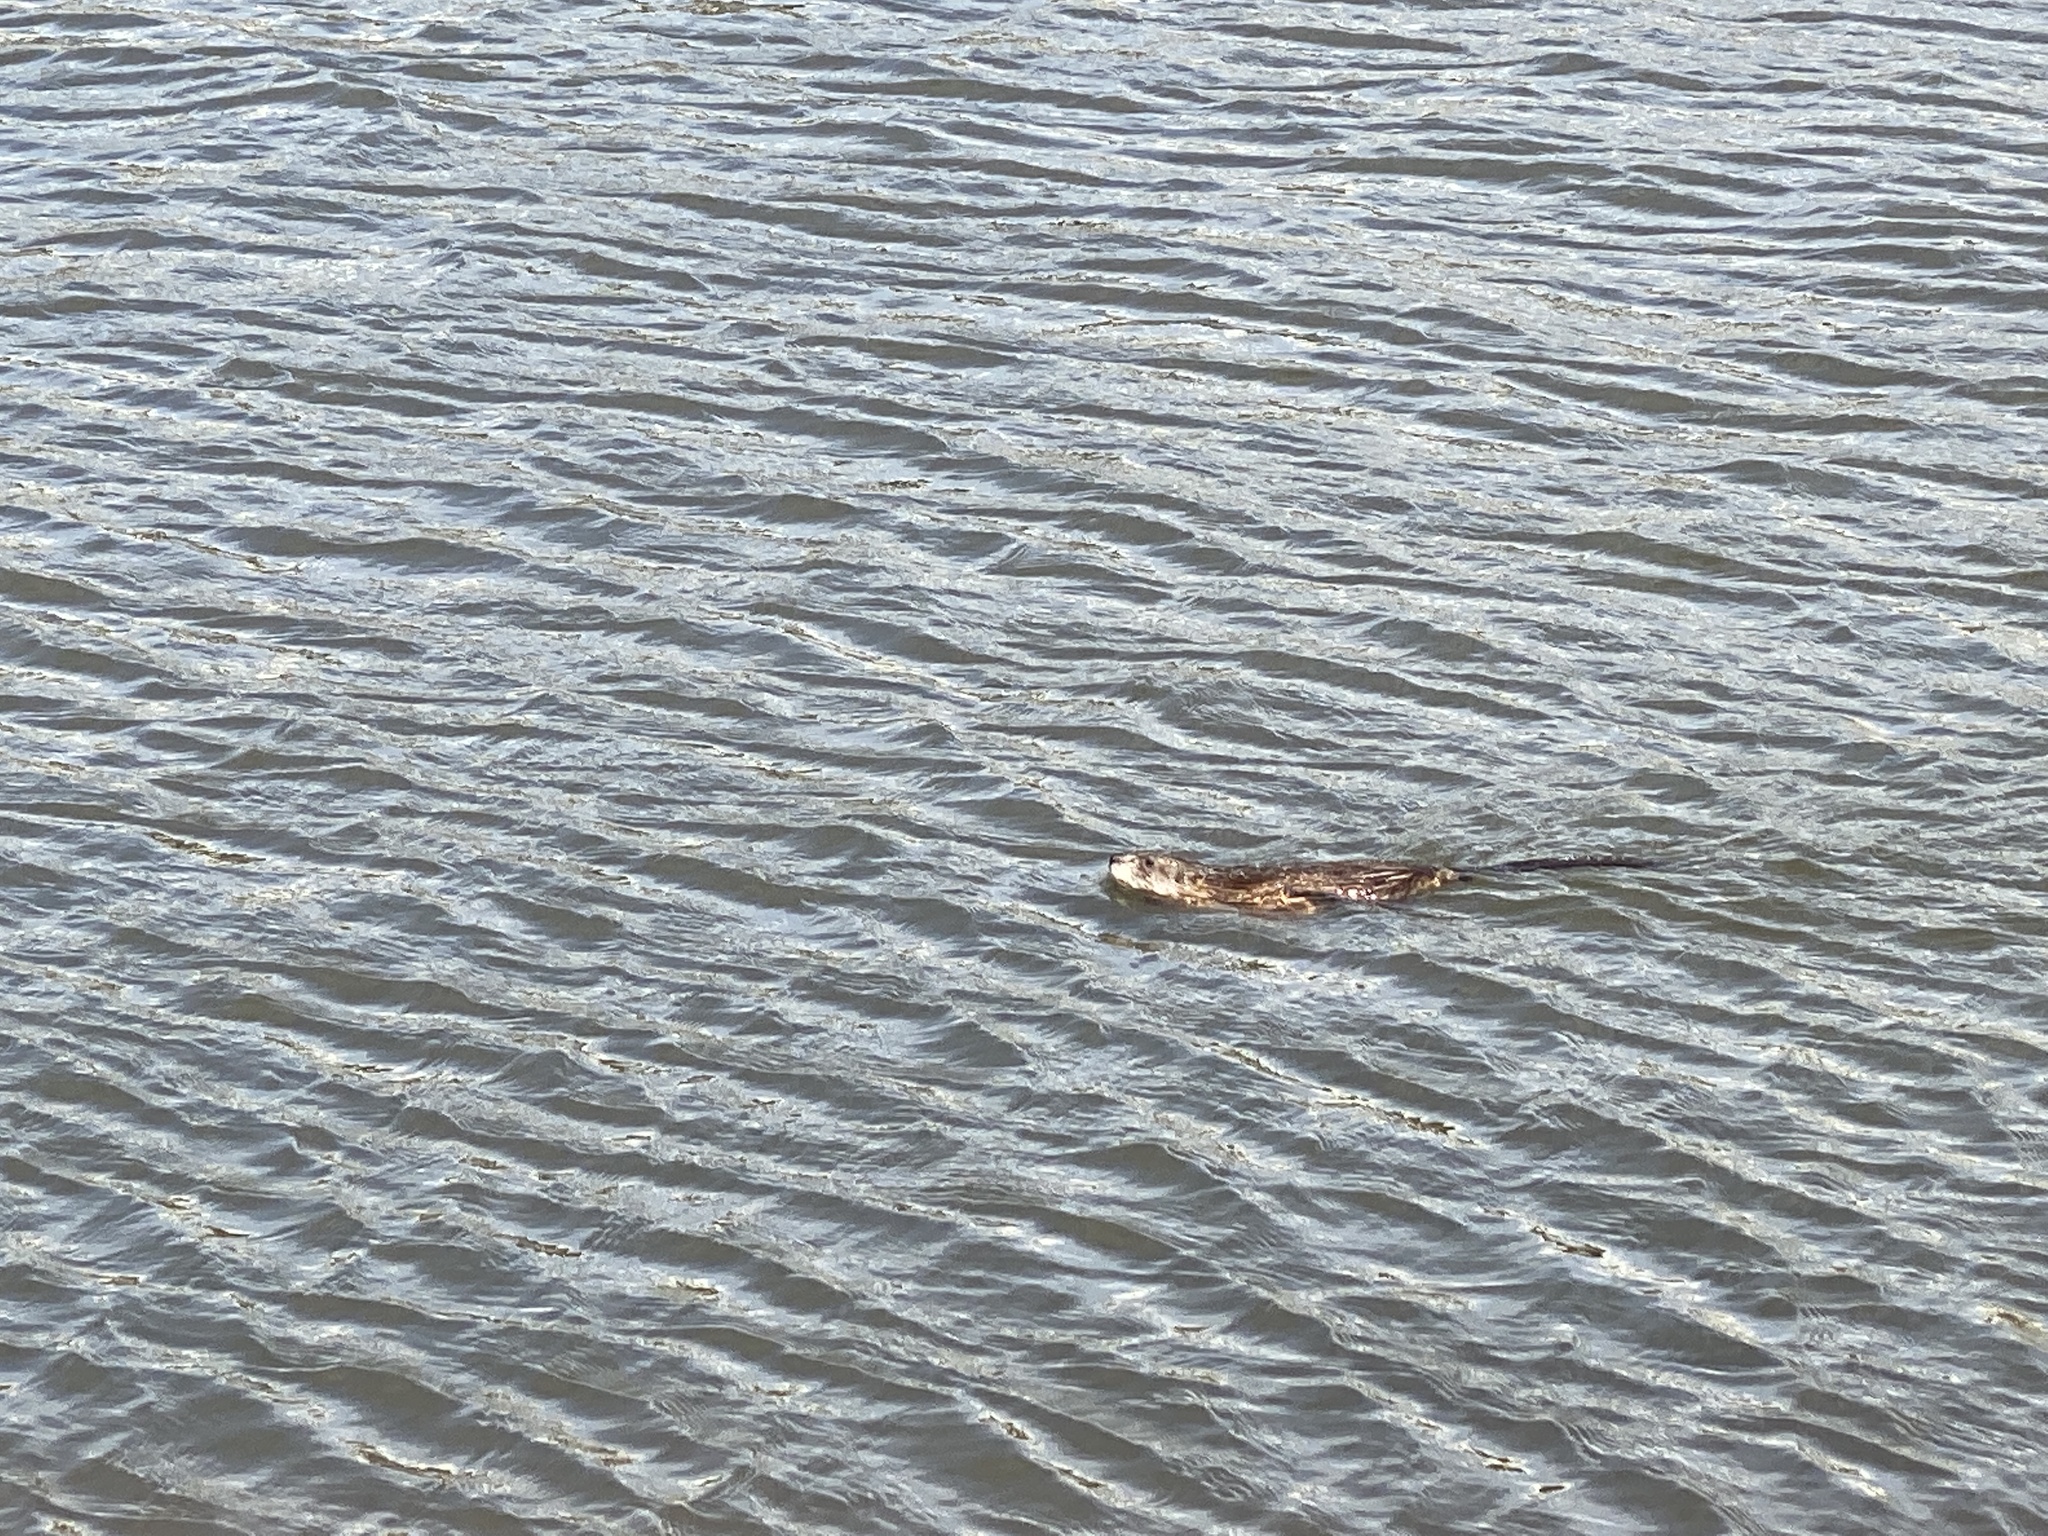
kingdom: Animalia
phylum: Chordata
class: Mammalia
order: Rodentia
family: Cricetidae
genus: Ondatra
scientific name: Ondatra zibethicus
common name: Muskrat
